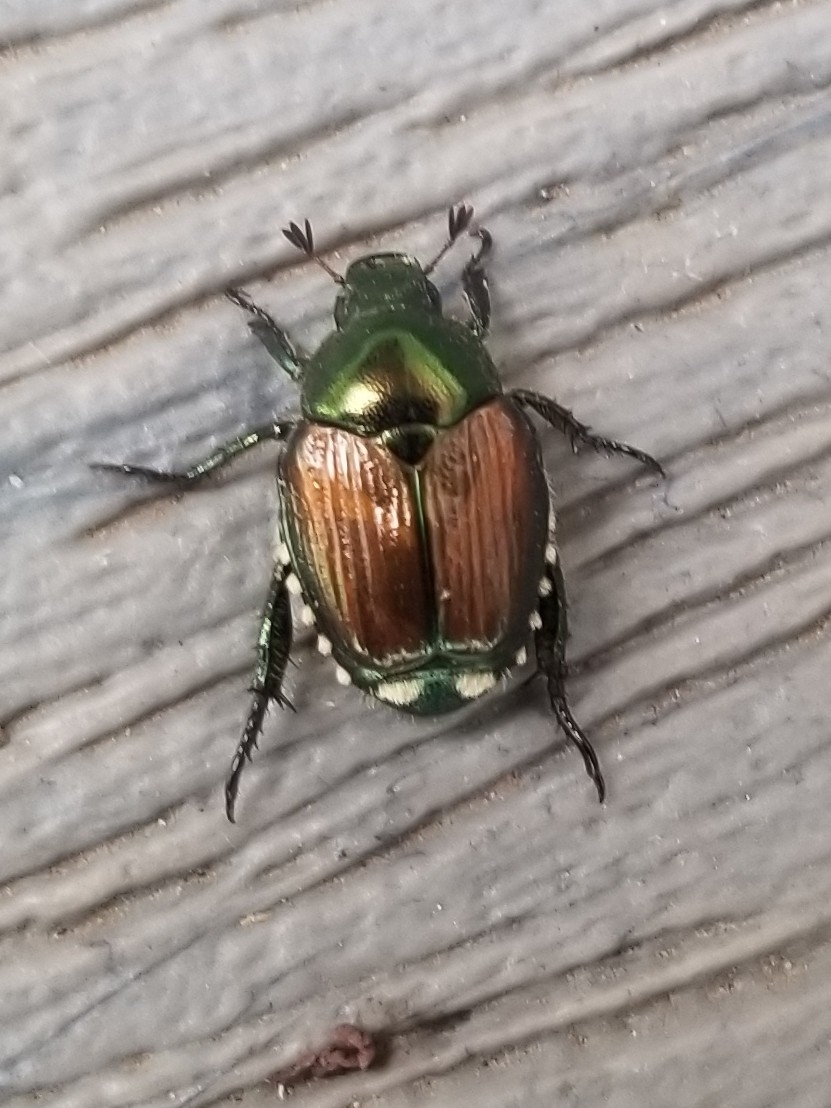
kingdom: Animalia
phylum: Arthropoda
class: Insecta
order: Coleoptera
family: Scarabaeidae
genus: Popillia
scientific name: Popillia japonica
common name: Japanese beetle
